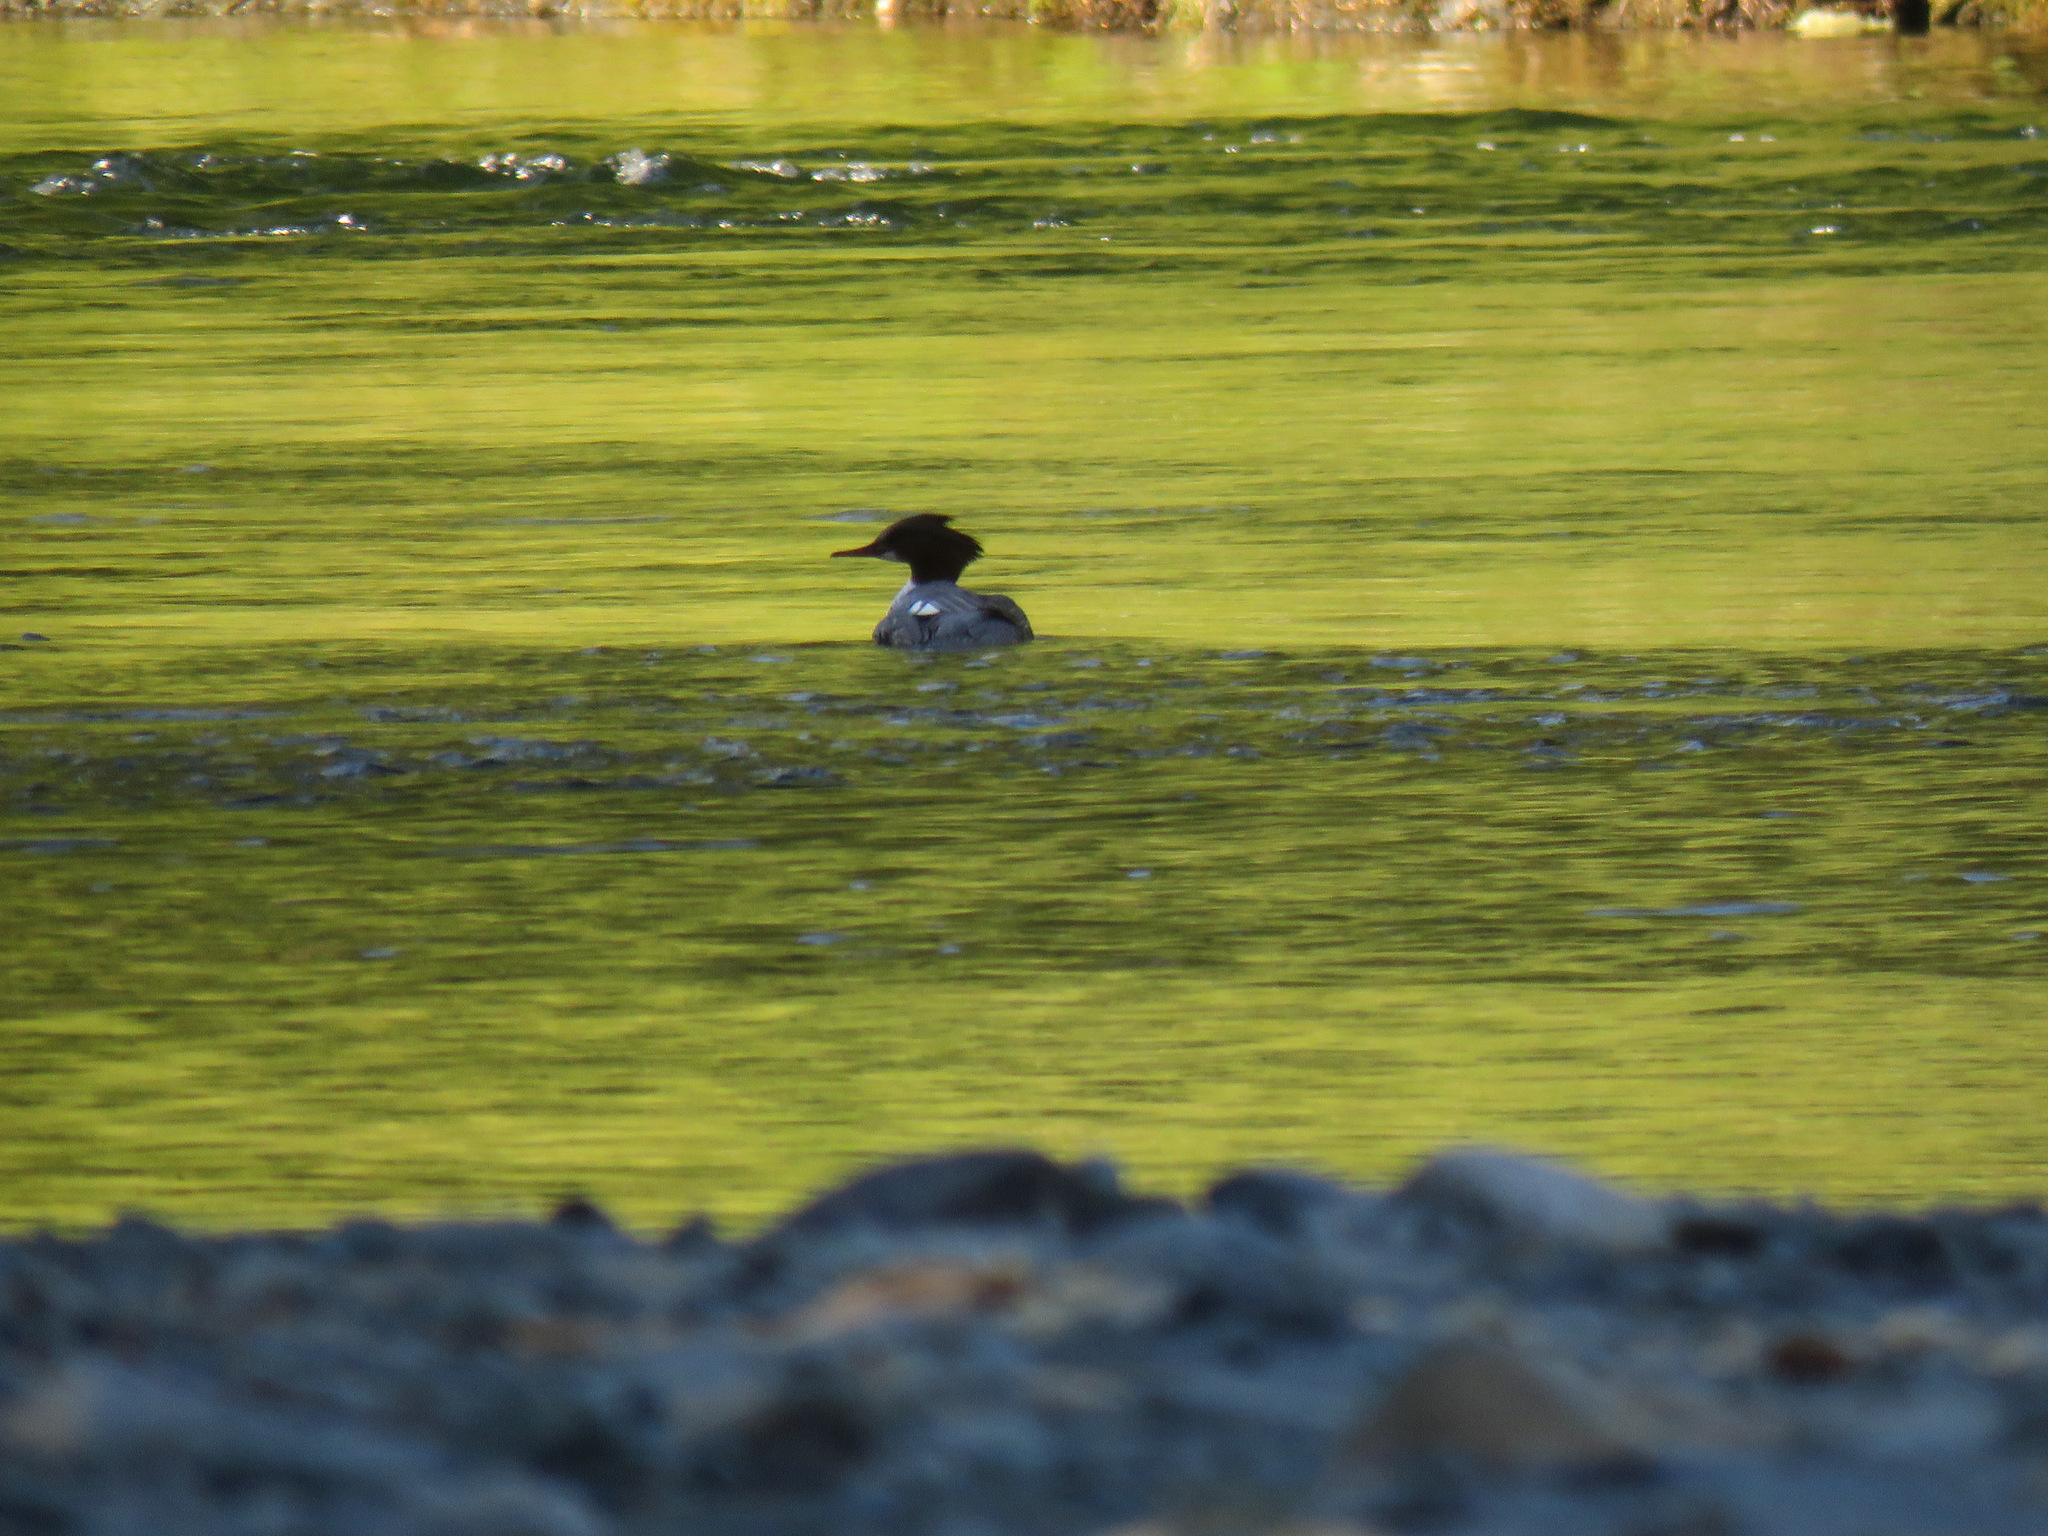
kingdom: Animalia
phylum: Chordata
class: Aves
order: Anseriformes
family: Anatidae
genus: Mergus
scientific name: Mergus merganser
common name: Common merganser
